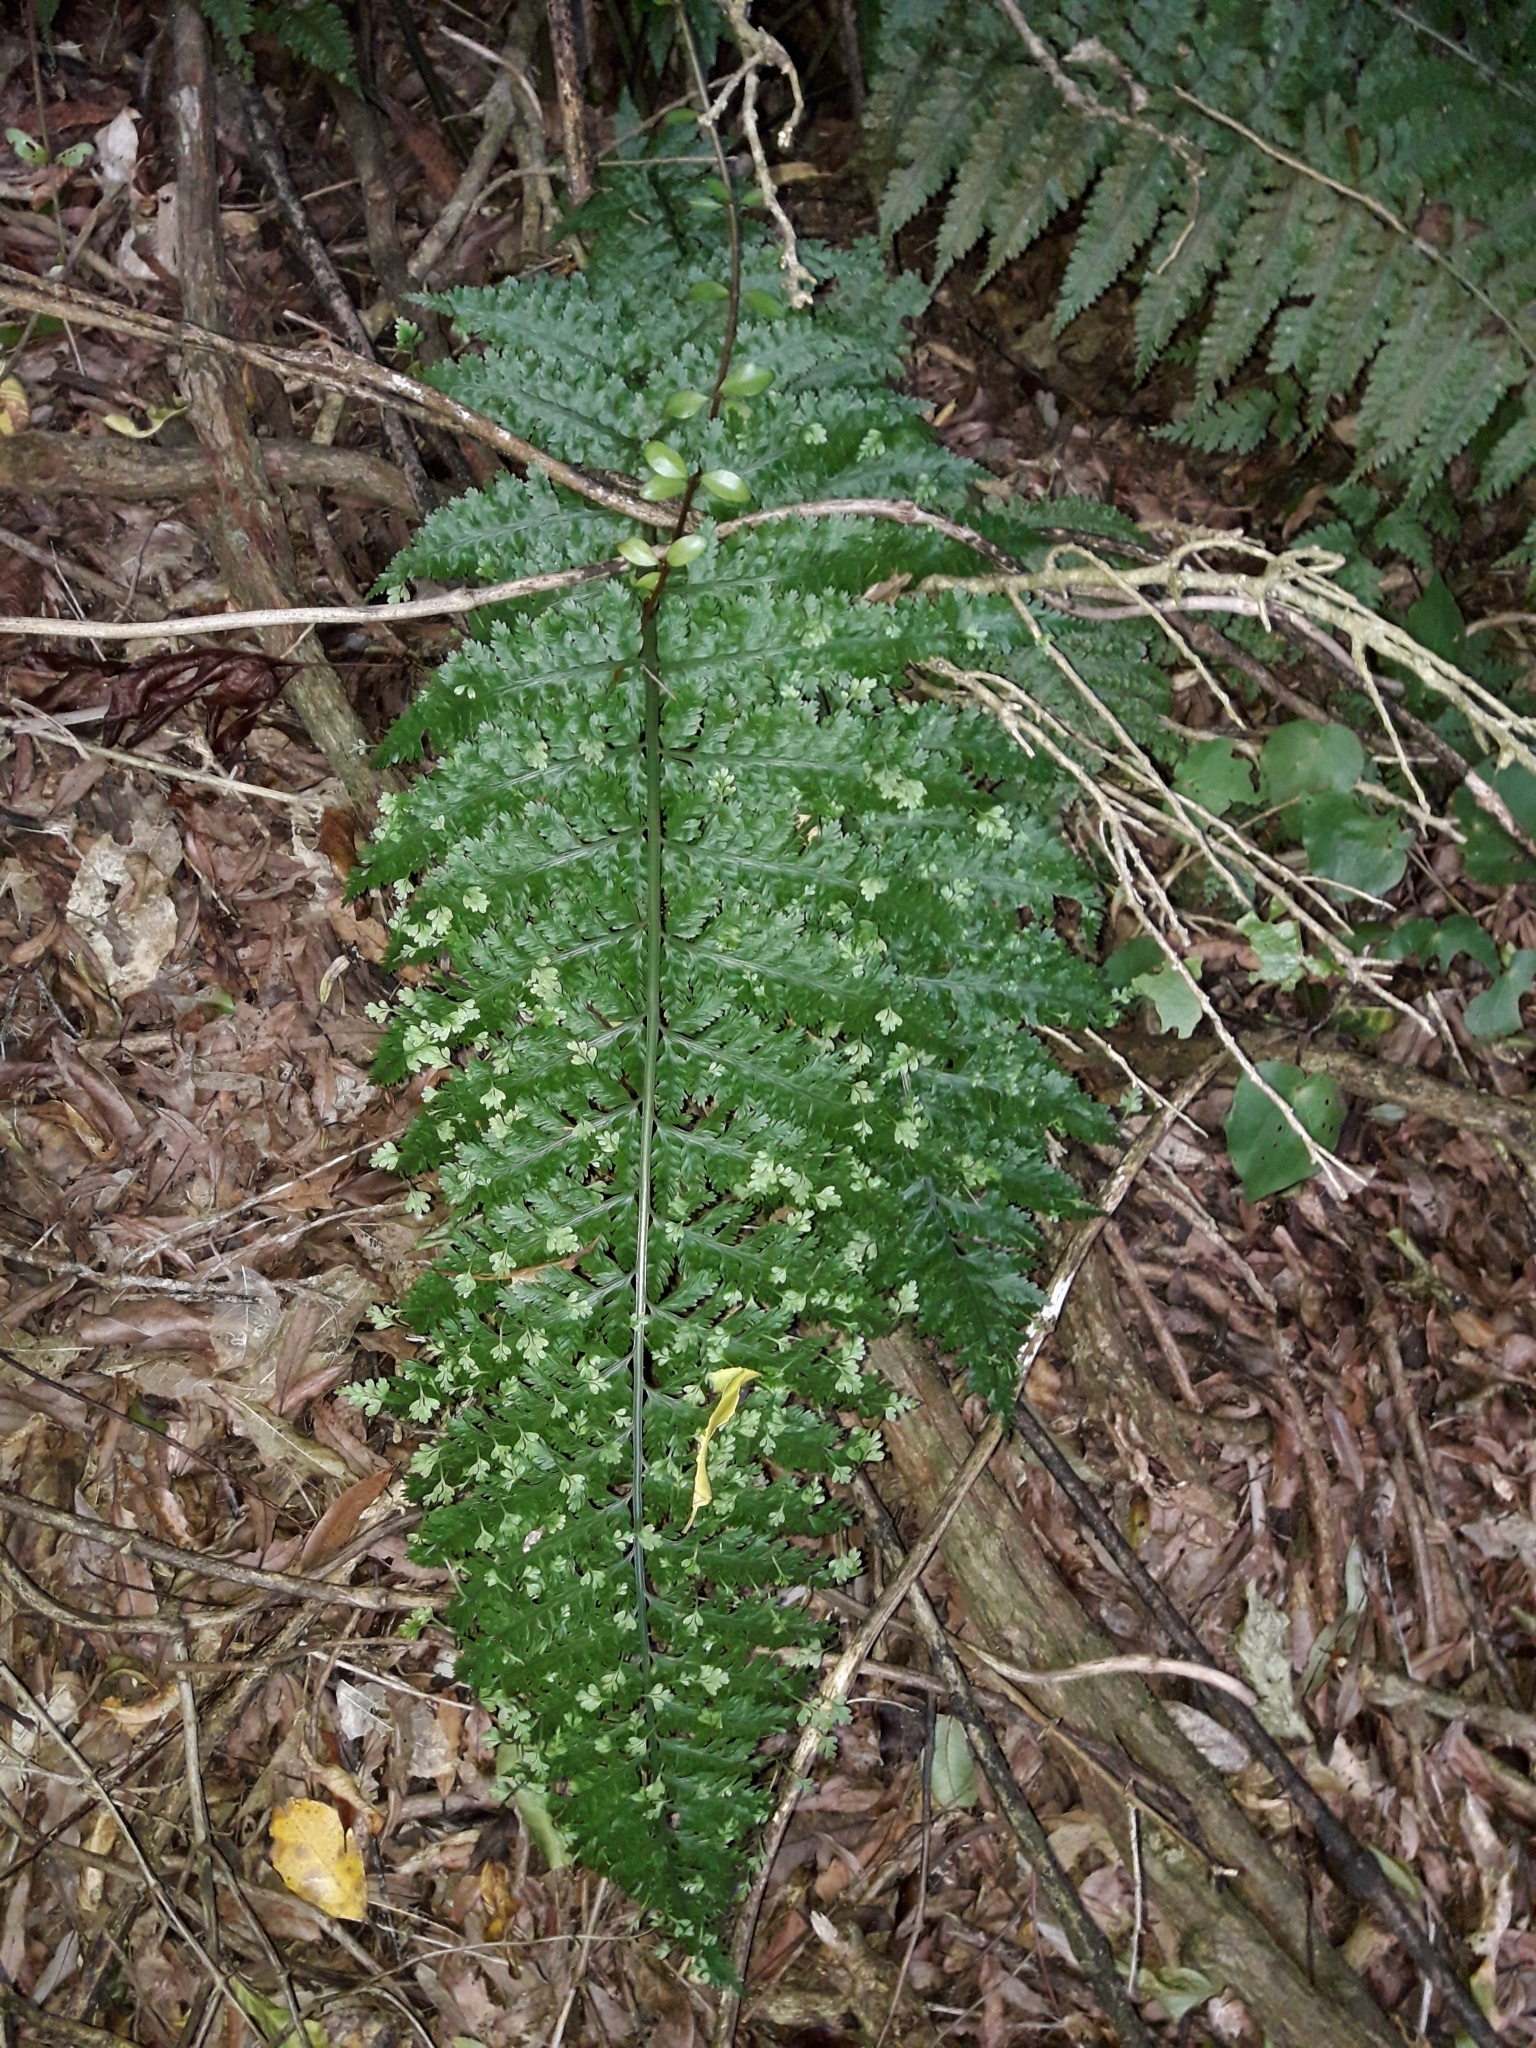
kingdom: Plantae
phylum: Tracheophyta
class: Polypodiopsida
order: Polypodiales
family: Aspleniaceae
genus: Asplenium
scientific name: Asplenium bulbiferum
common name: Mother fern
